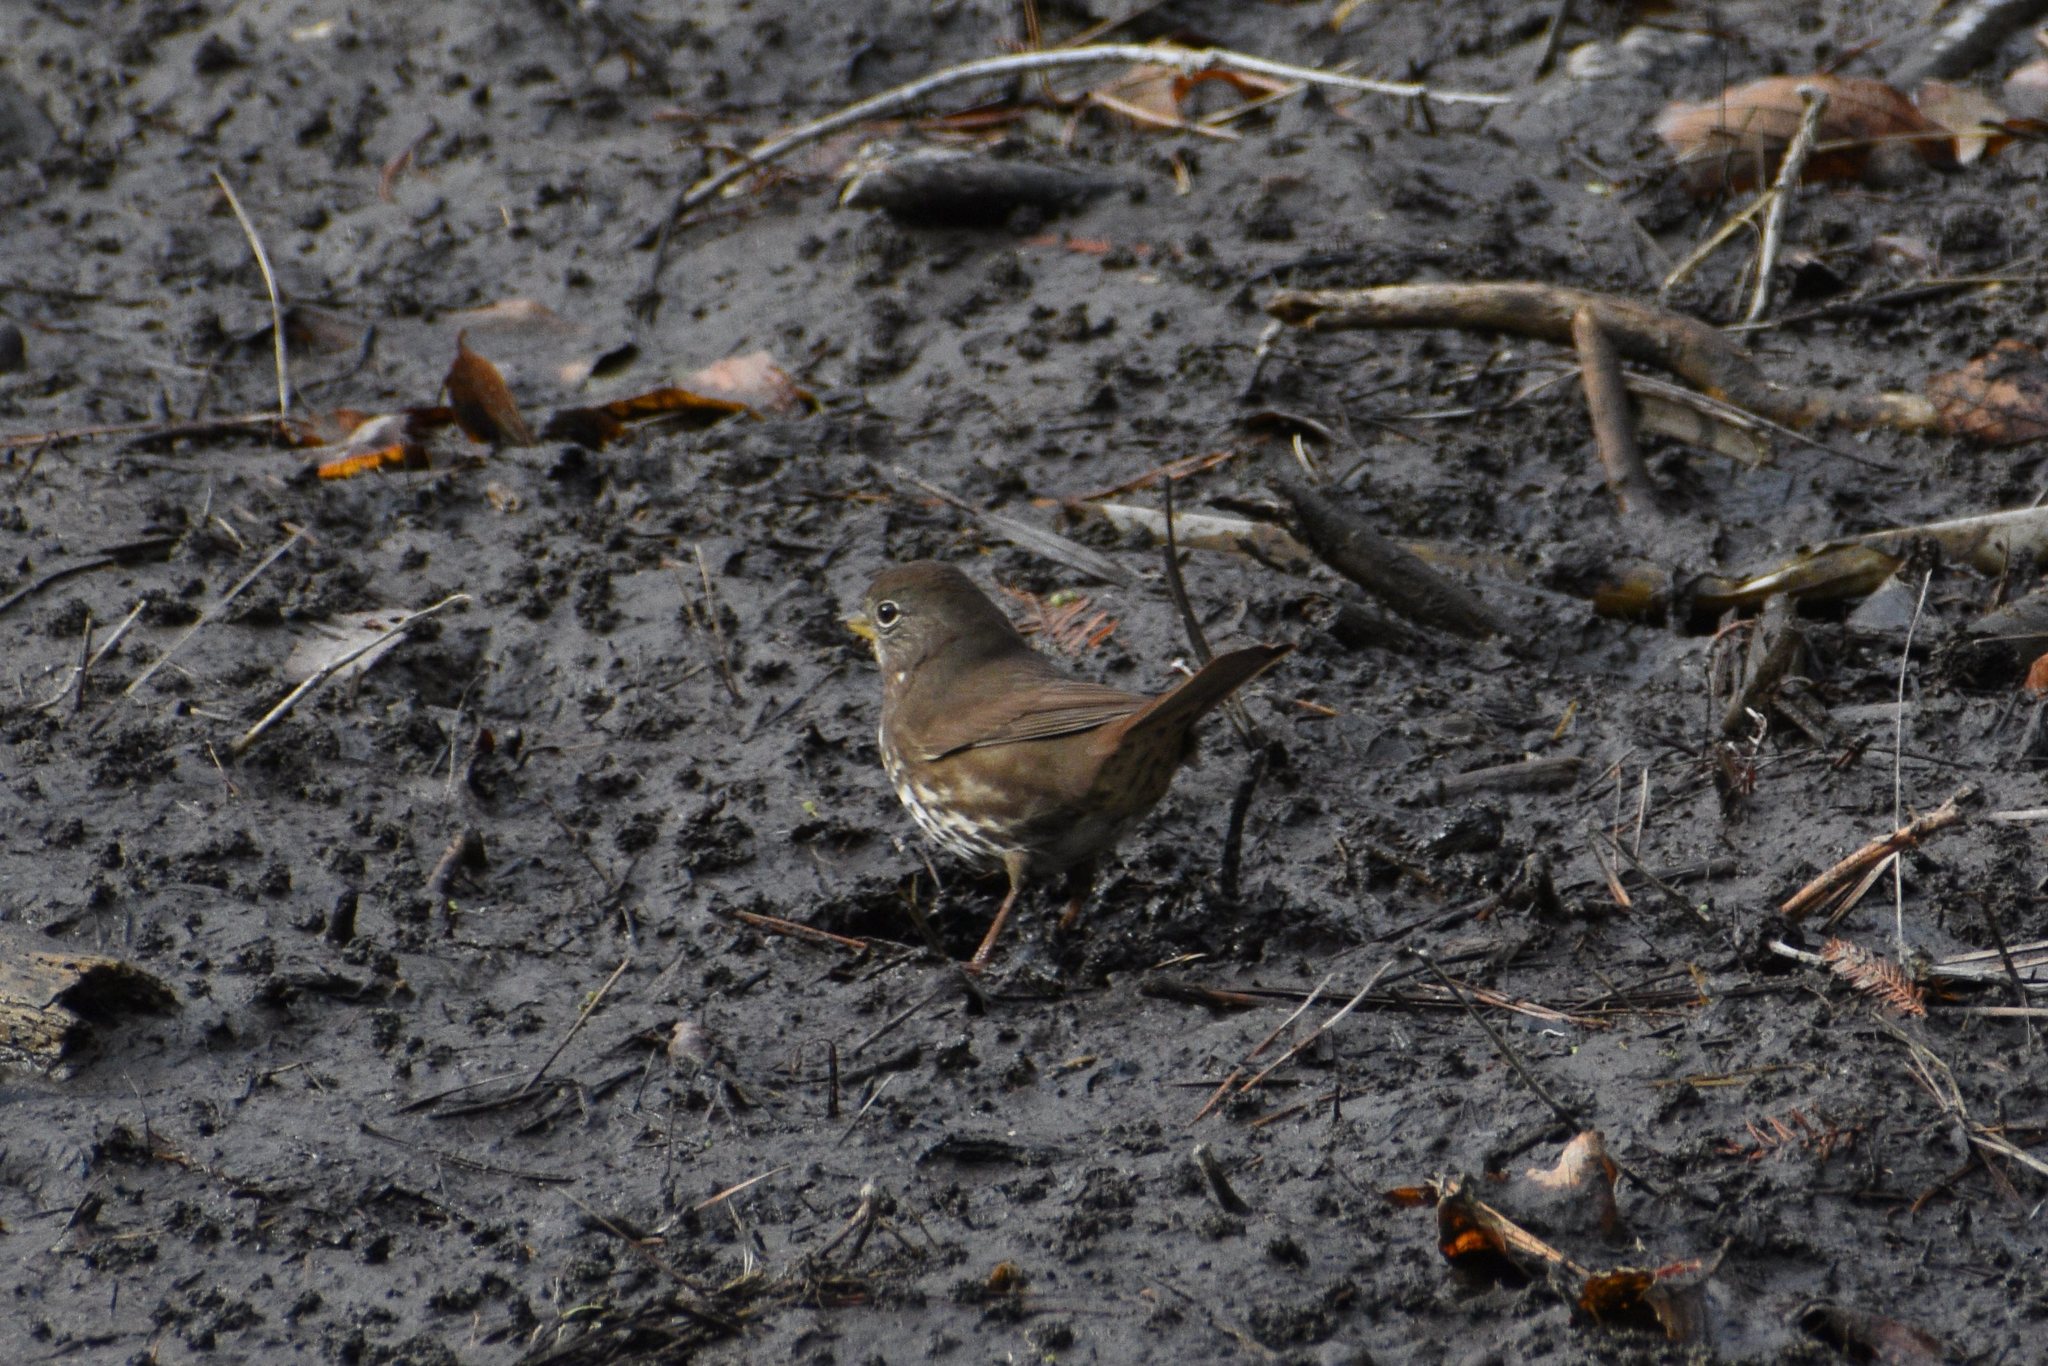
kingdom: Animalia
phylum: Chordata
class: Aves
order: Passeriformes
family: Passerellidae
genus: Passerella
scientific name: Passerella iliaca
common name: Fox sparrow
